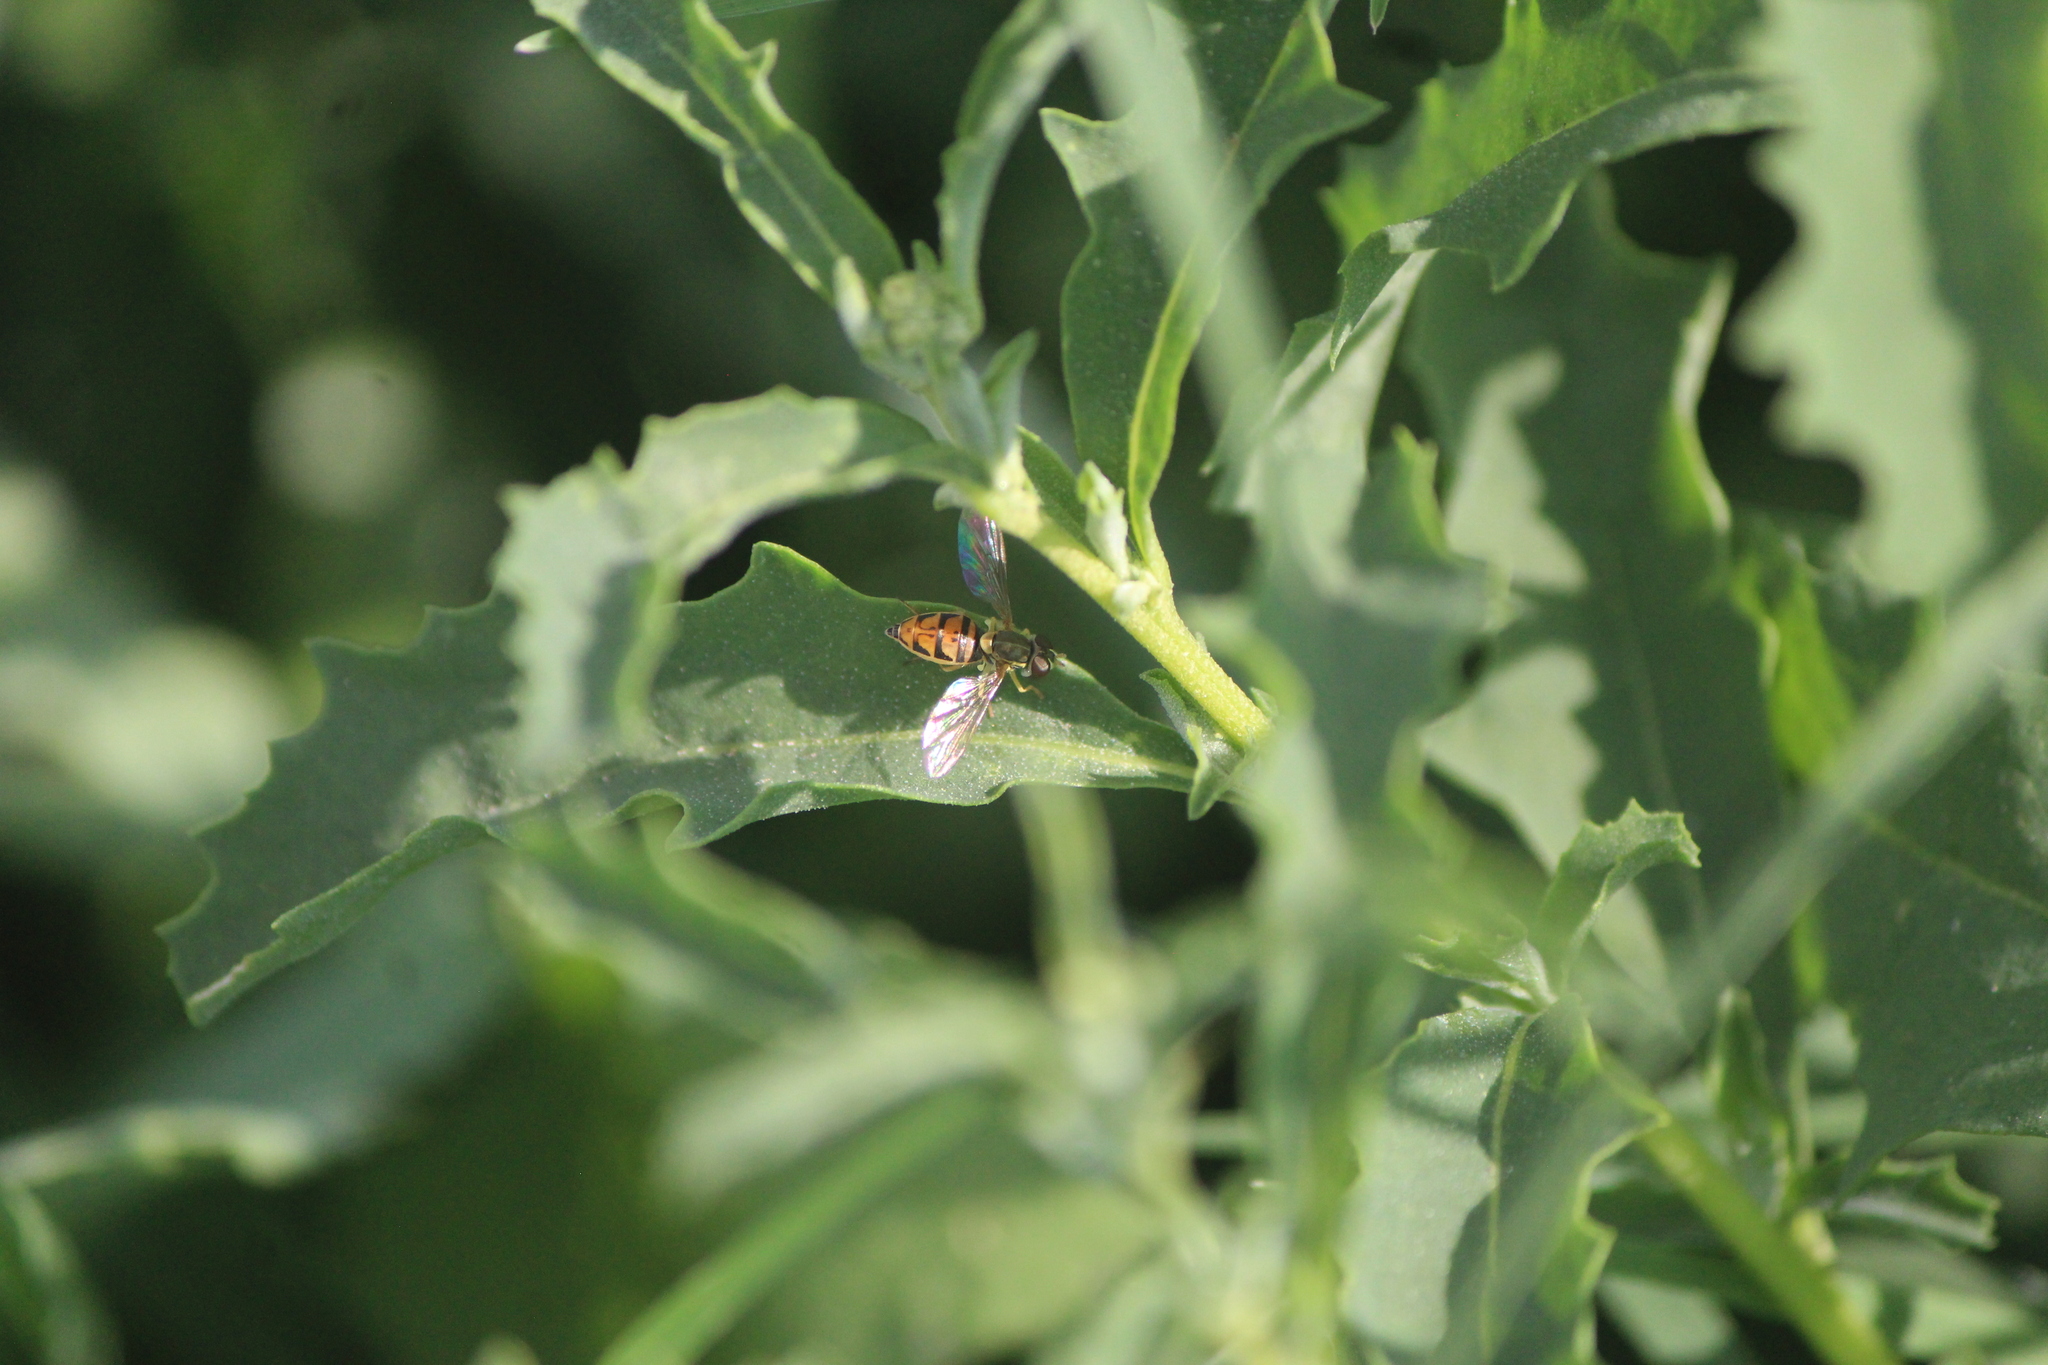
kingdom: Animalia
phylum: Arthropoda
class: Insecta
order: Diptera
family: Syrphidae
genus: Toxomerus
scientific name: Toxomerus marginatus
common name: Syrphid fly
